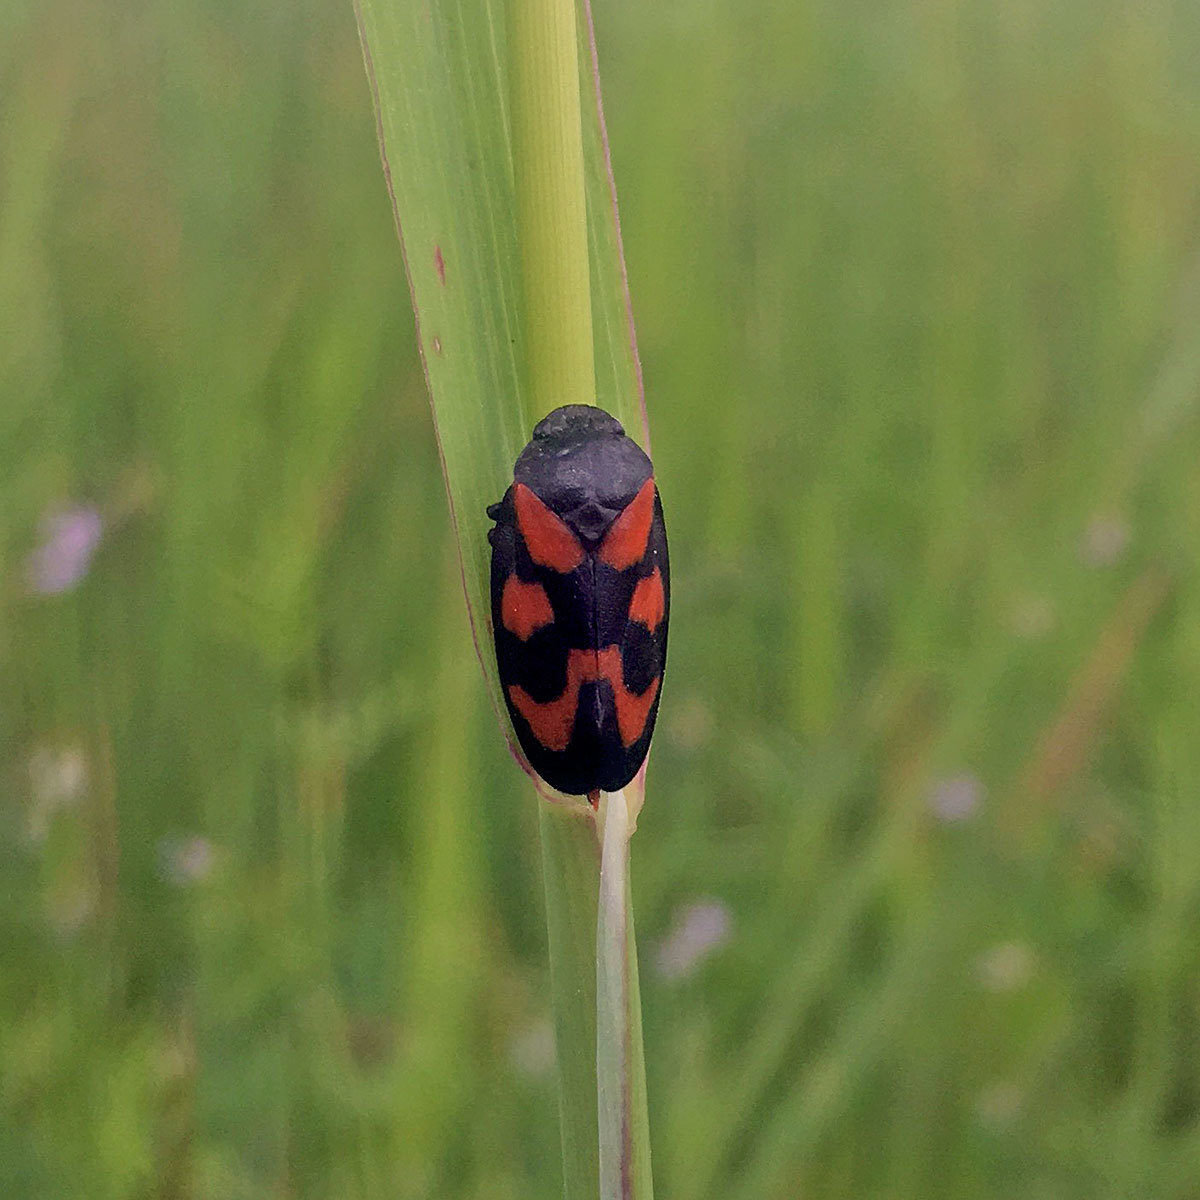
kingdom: Animalia
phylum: Arthropoda
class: Insecta
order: Hemiptera
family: Cercopidae
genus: Cercopis
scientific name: Cercopis vulnerata
